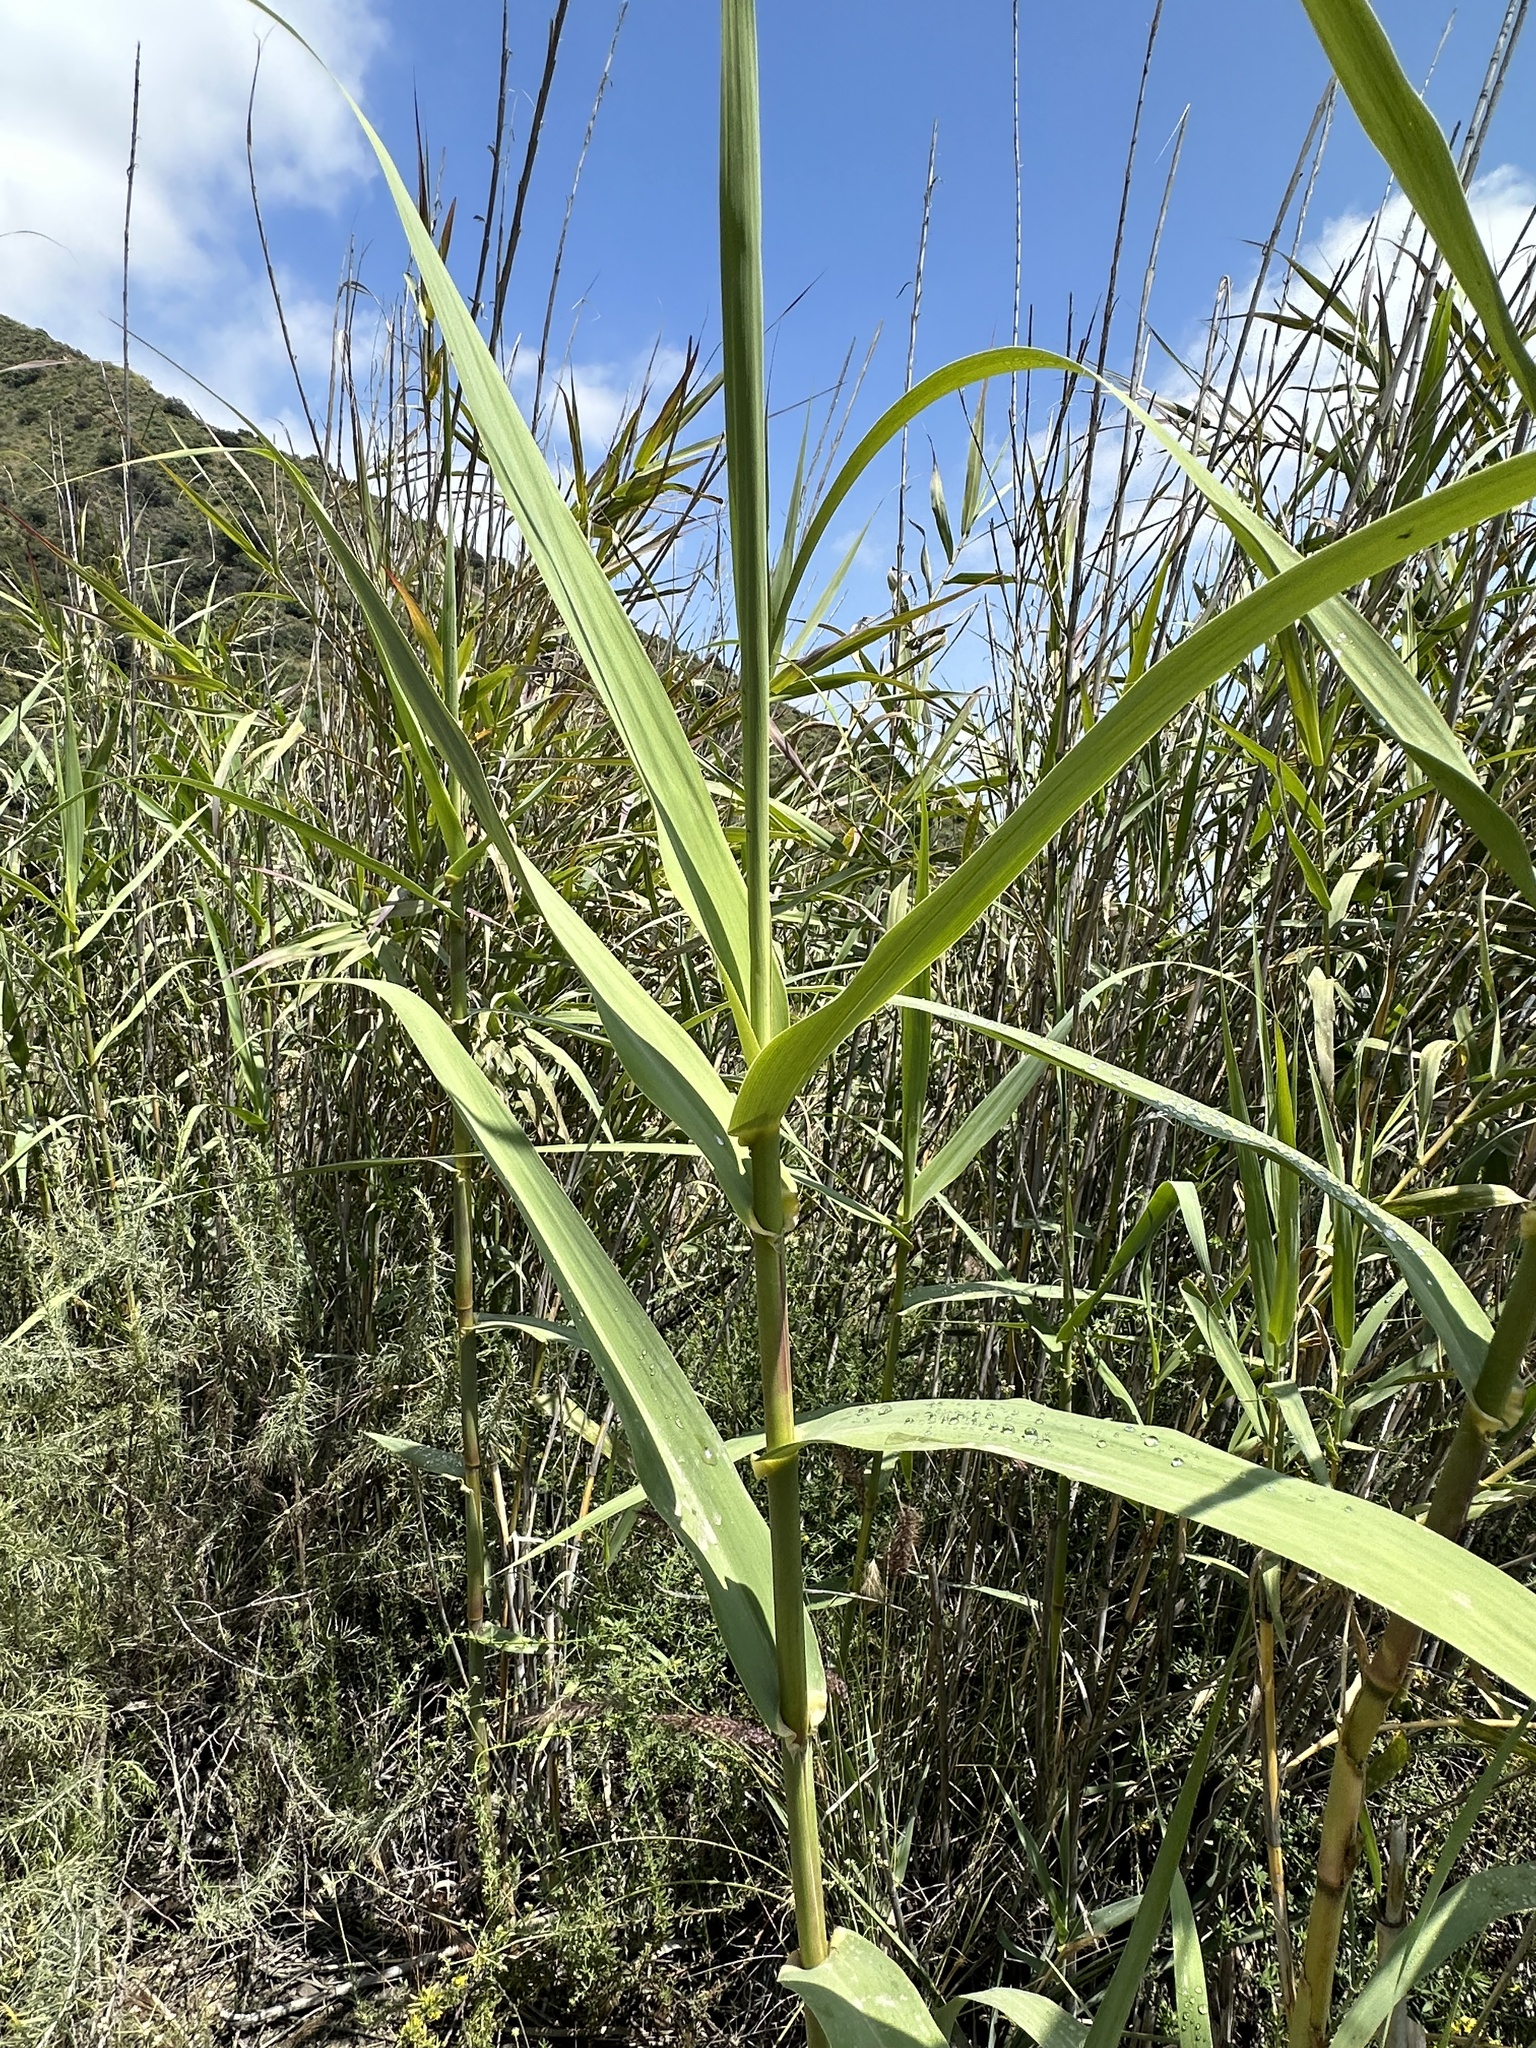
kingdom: Plantae
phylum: Tracheophyta
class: Liliopsida
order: Poales
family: Poaceae
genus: Arundo
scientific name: Arundo donax
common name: Giant reed
